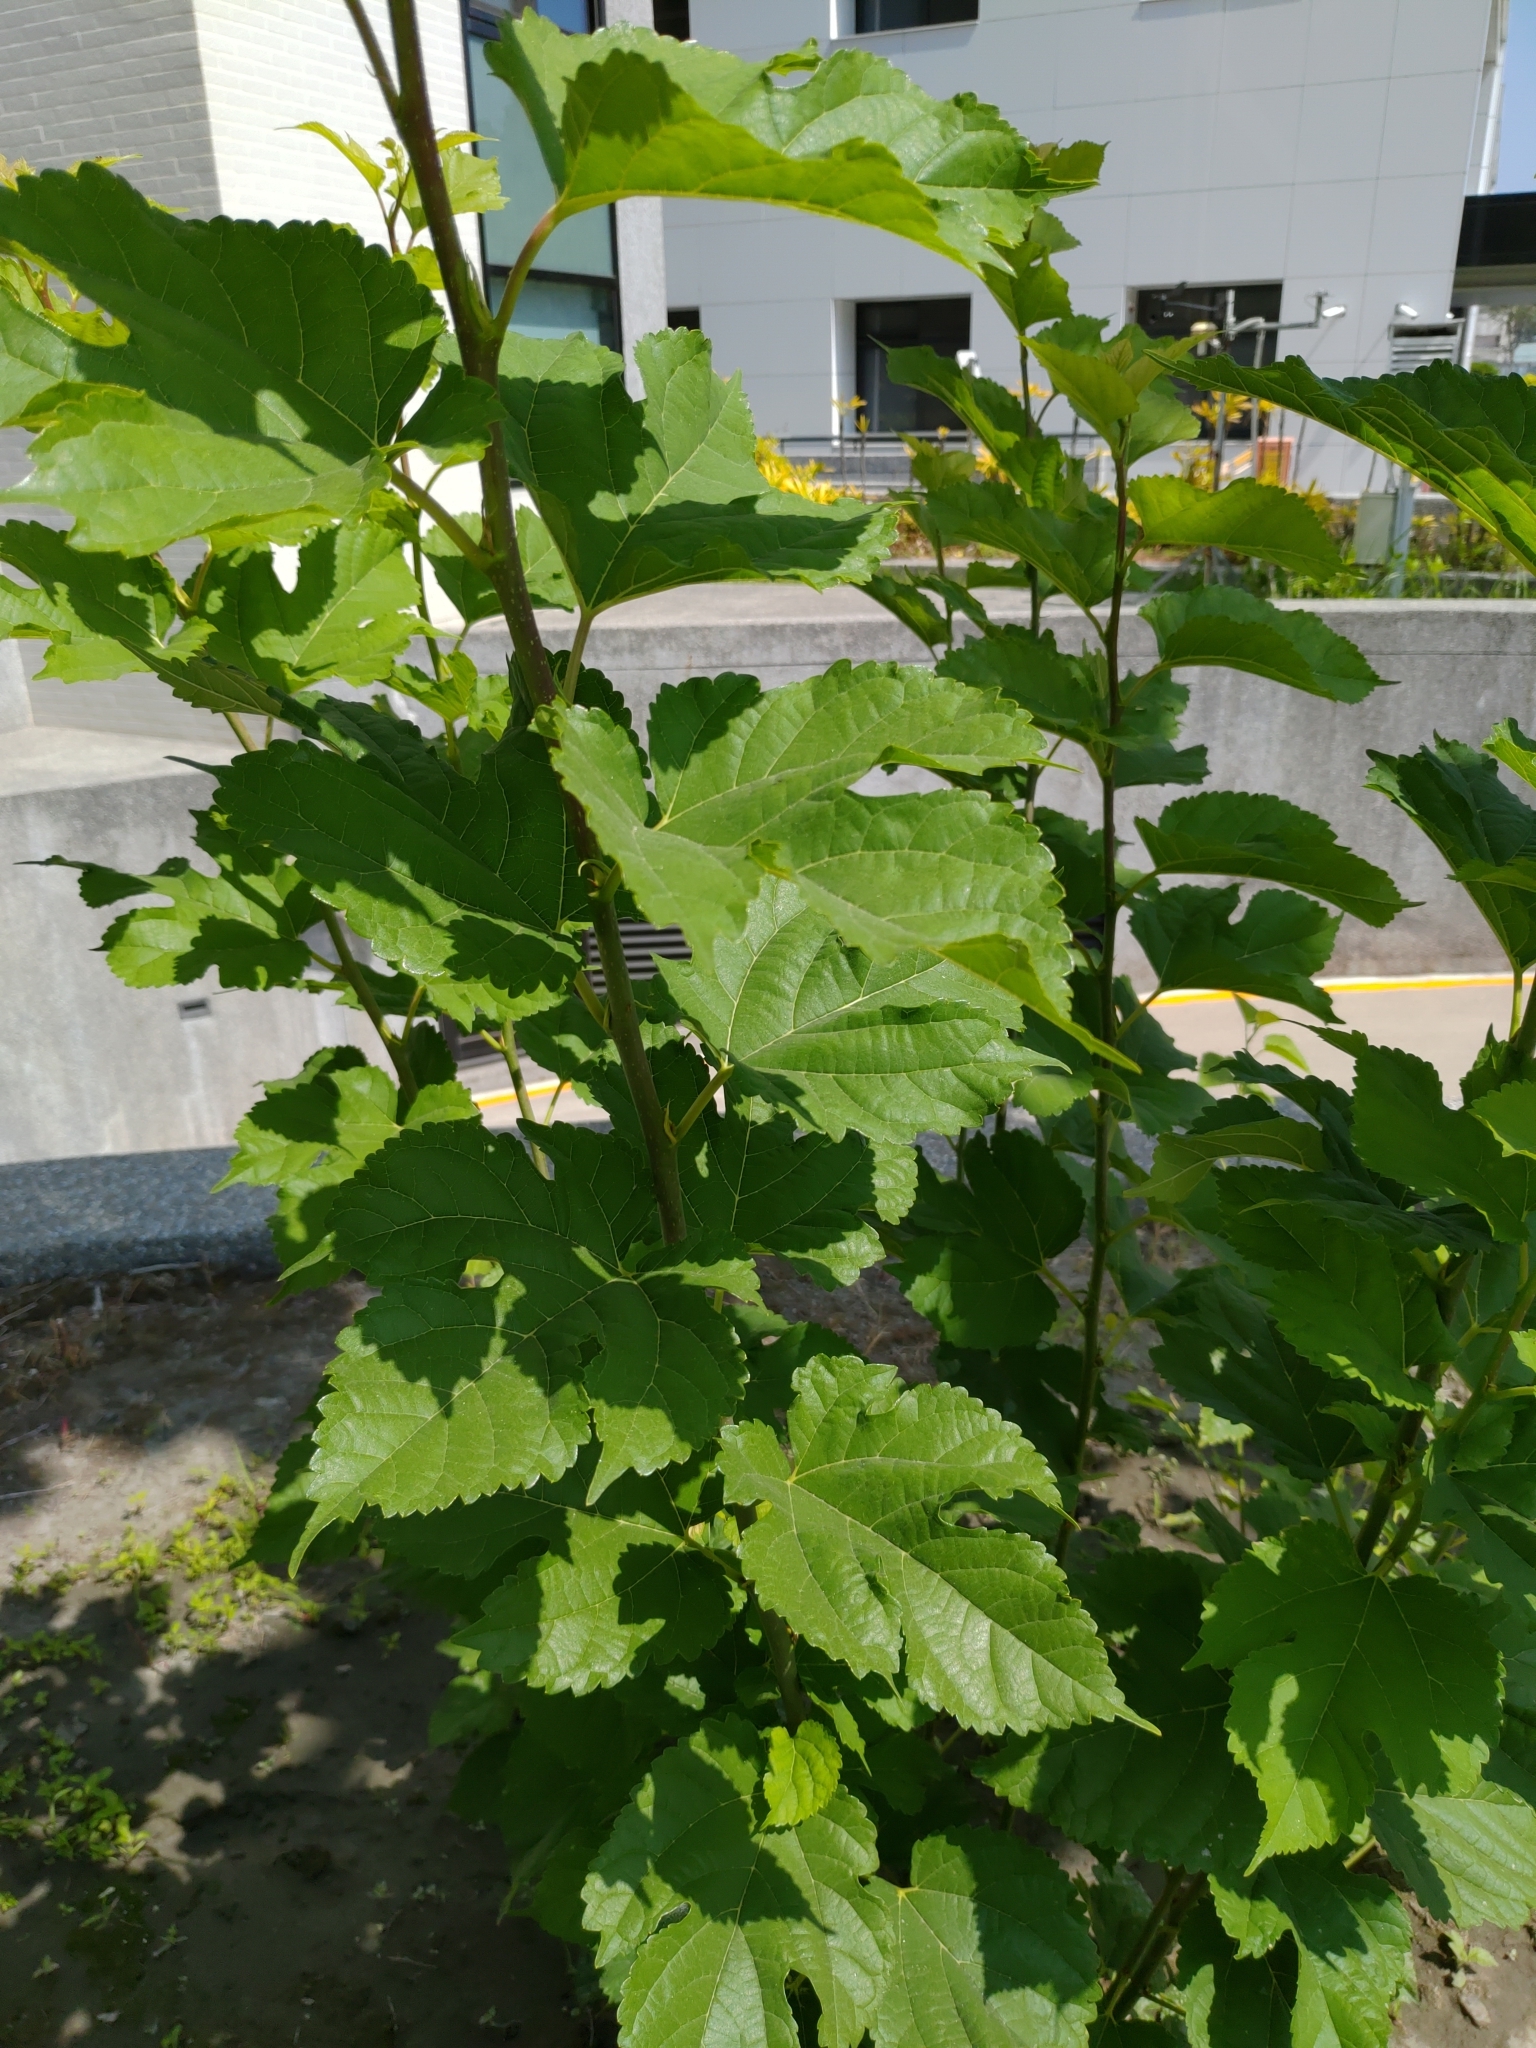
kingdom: Plantae
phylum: Tracheophyta
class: Magnoliopsida
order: Rosales
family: Moraceae
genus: Morus
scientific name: Morus indica
